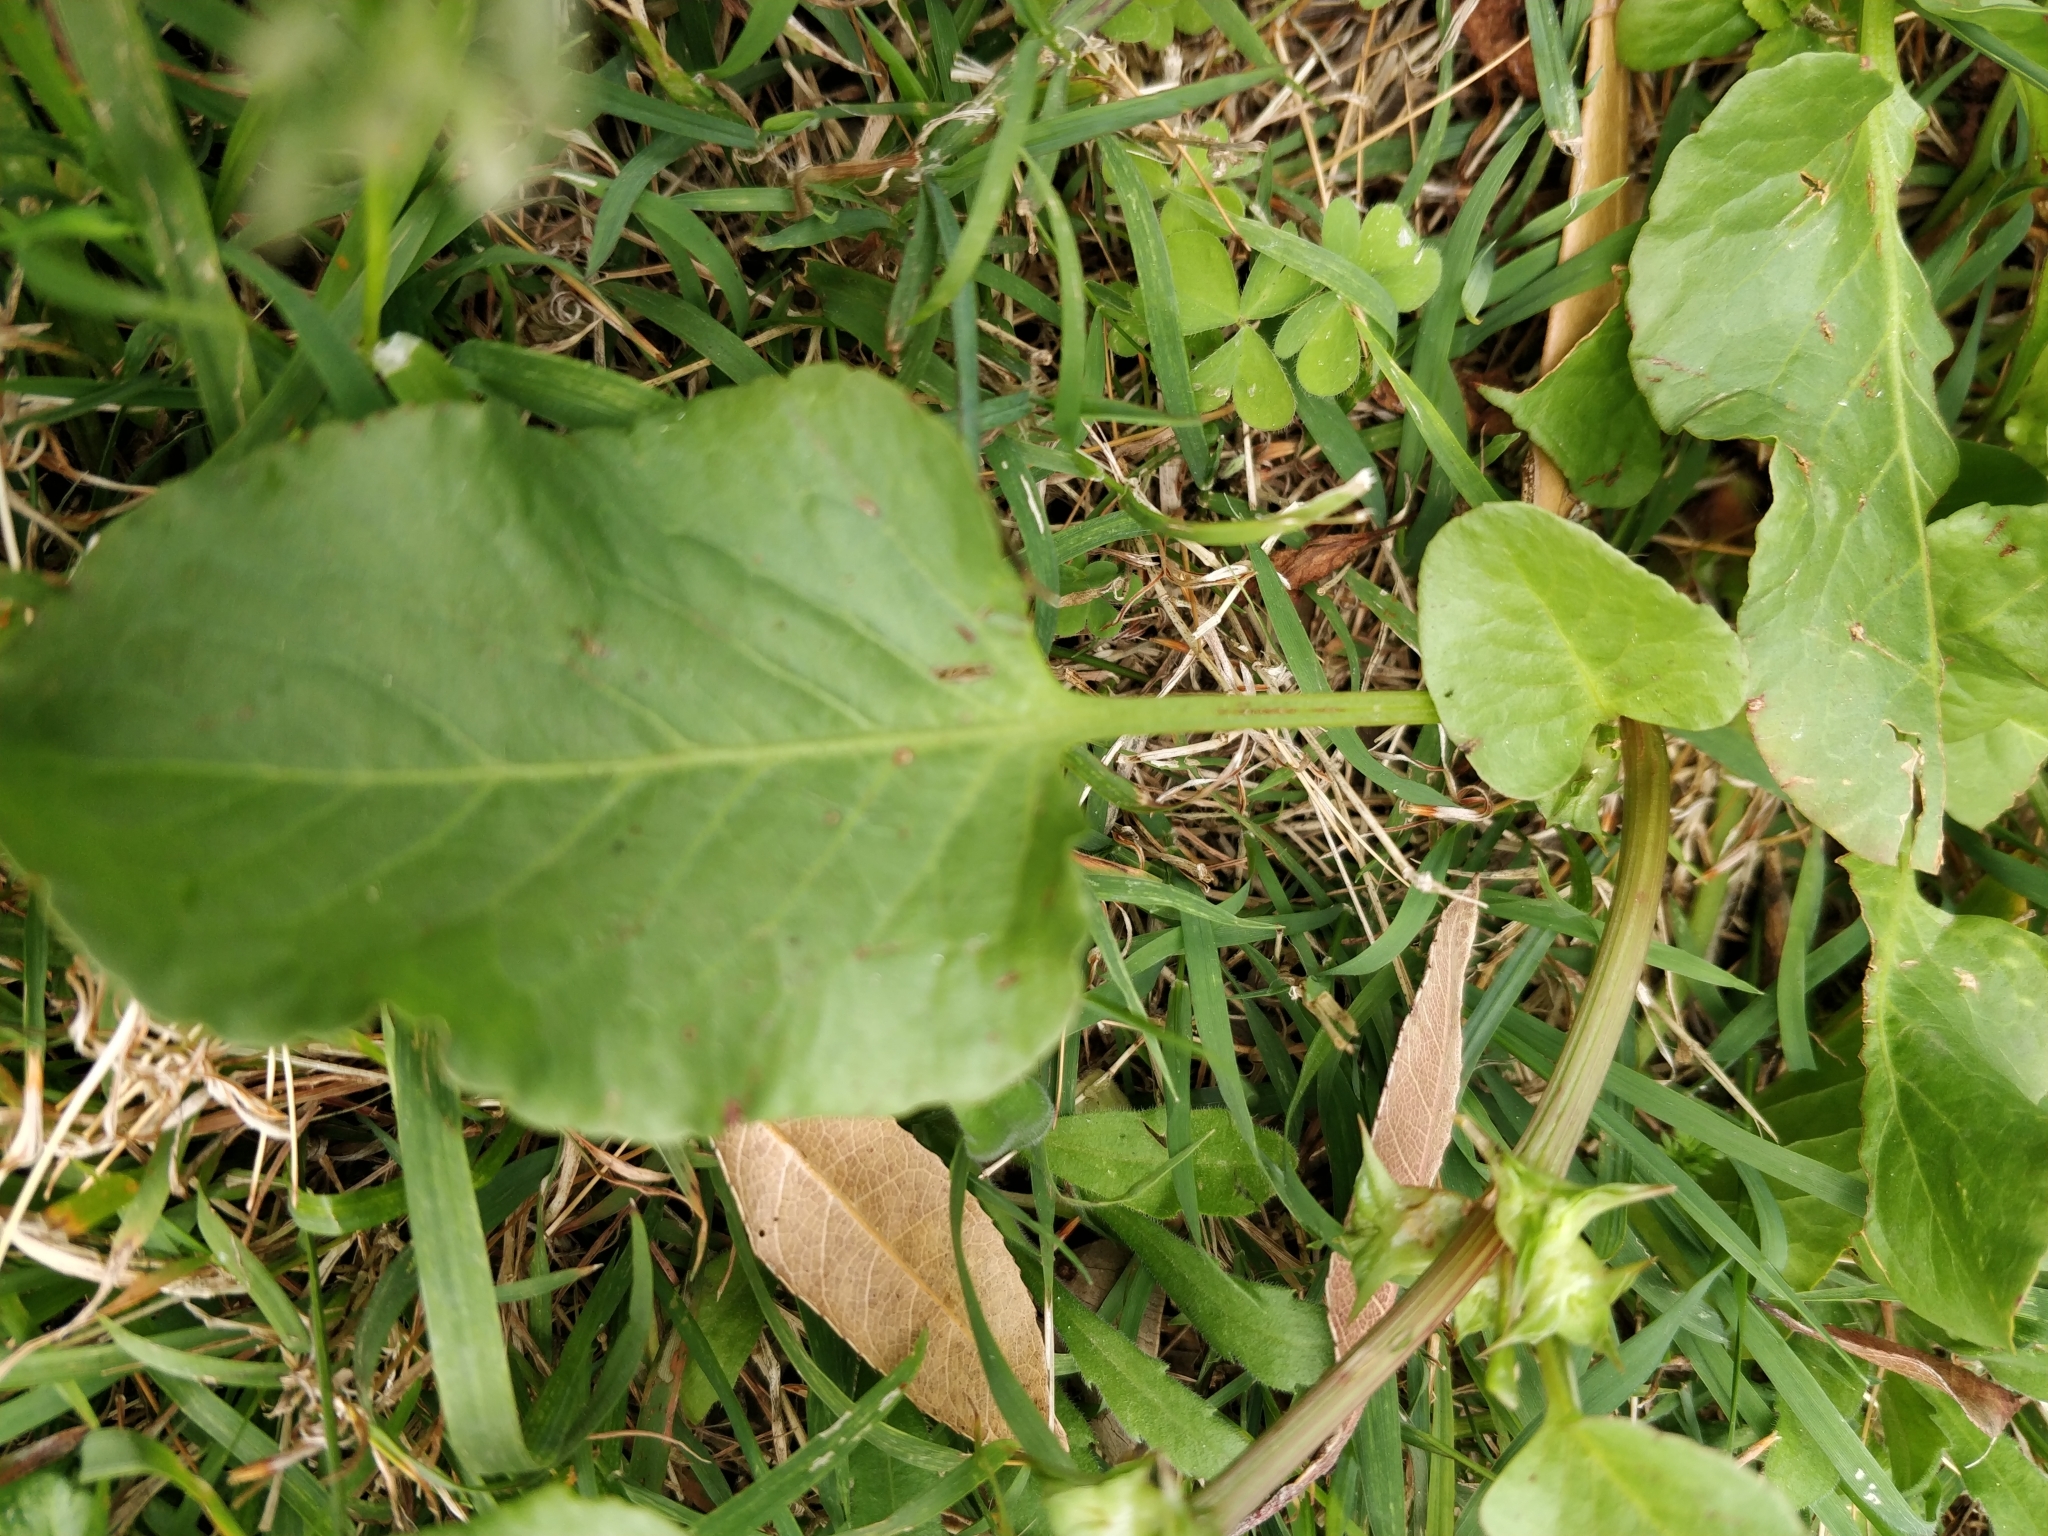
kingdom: Plantae
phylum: Tracheophyta
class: Magnoliopsida
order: Caryophyllales
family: Polygonaceae
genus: Rumex
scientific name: Rumex hypogaeus
